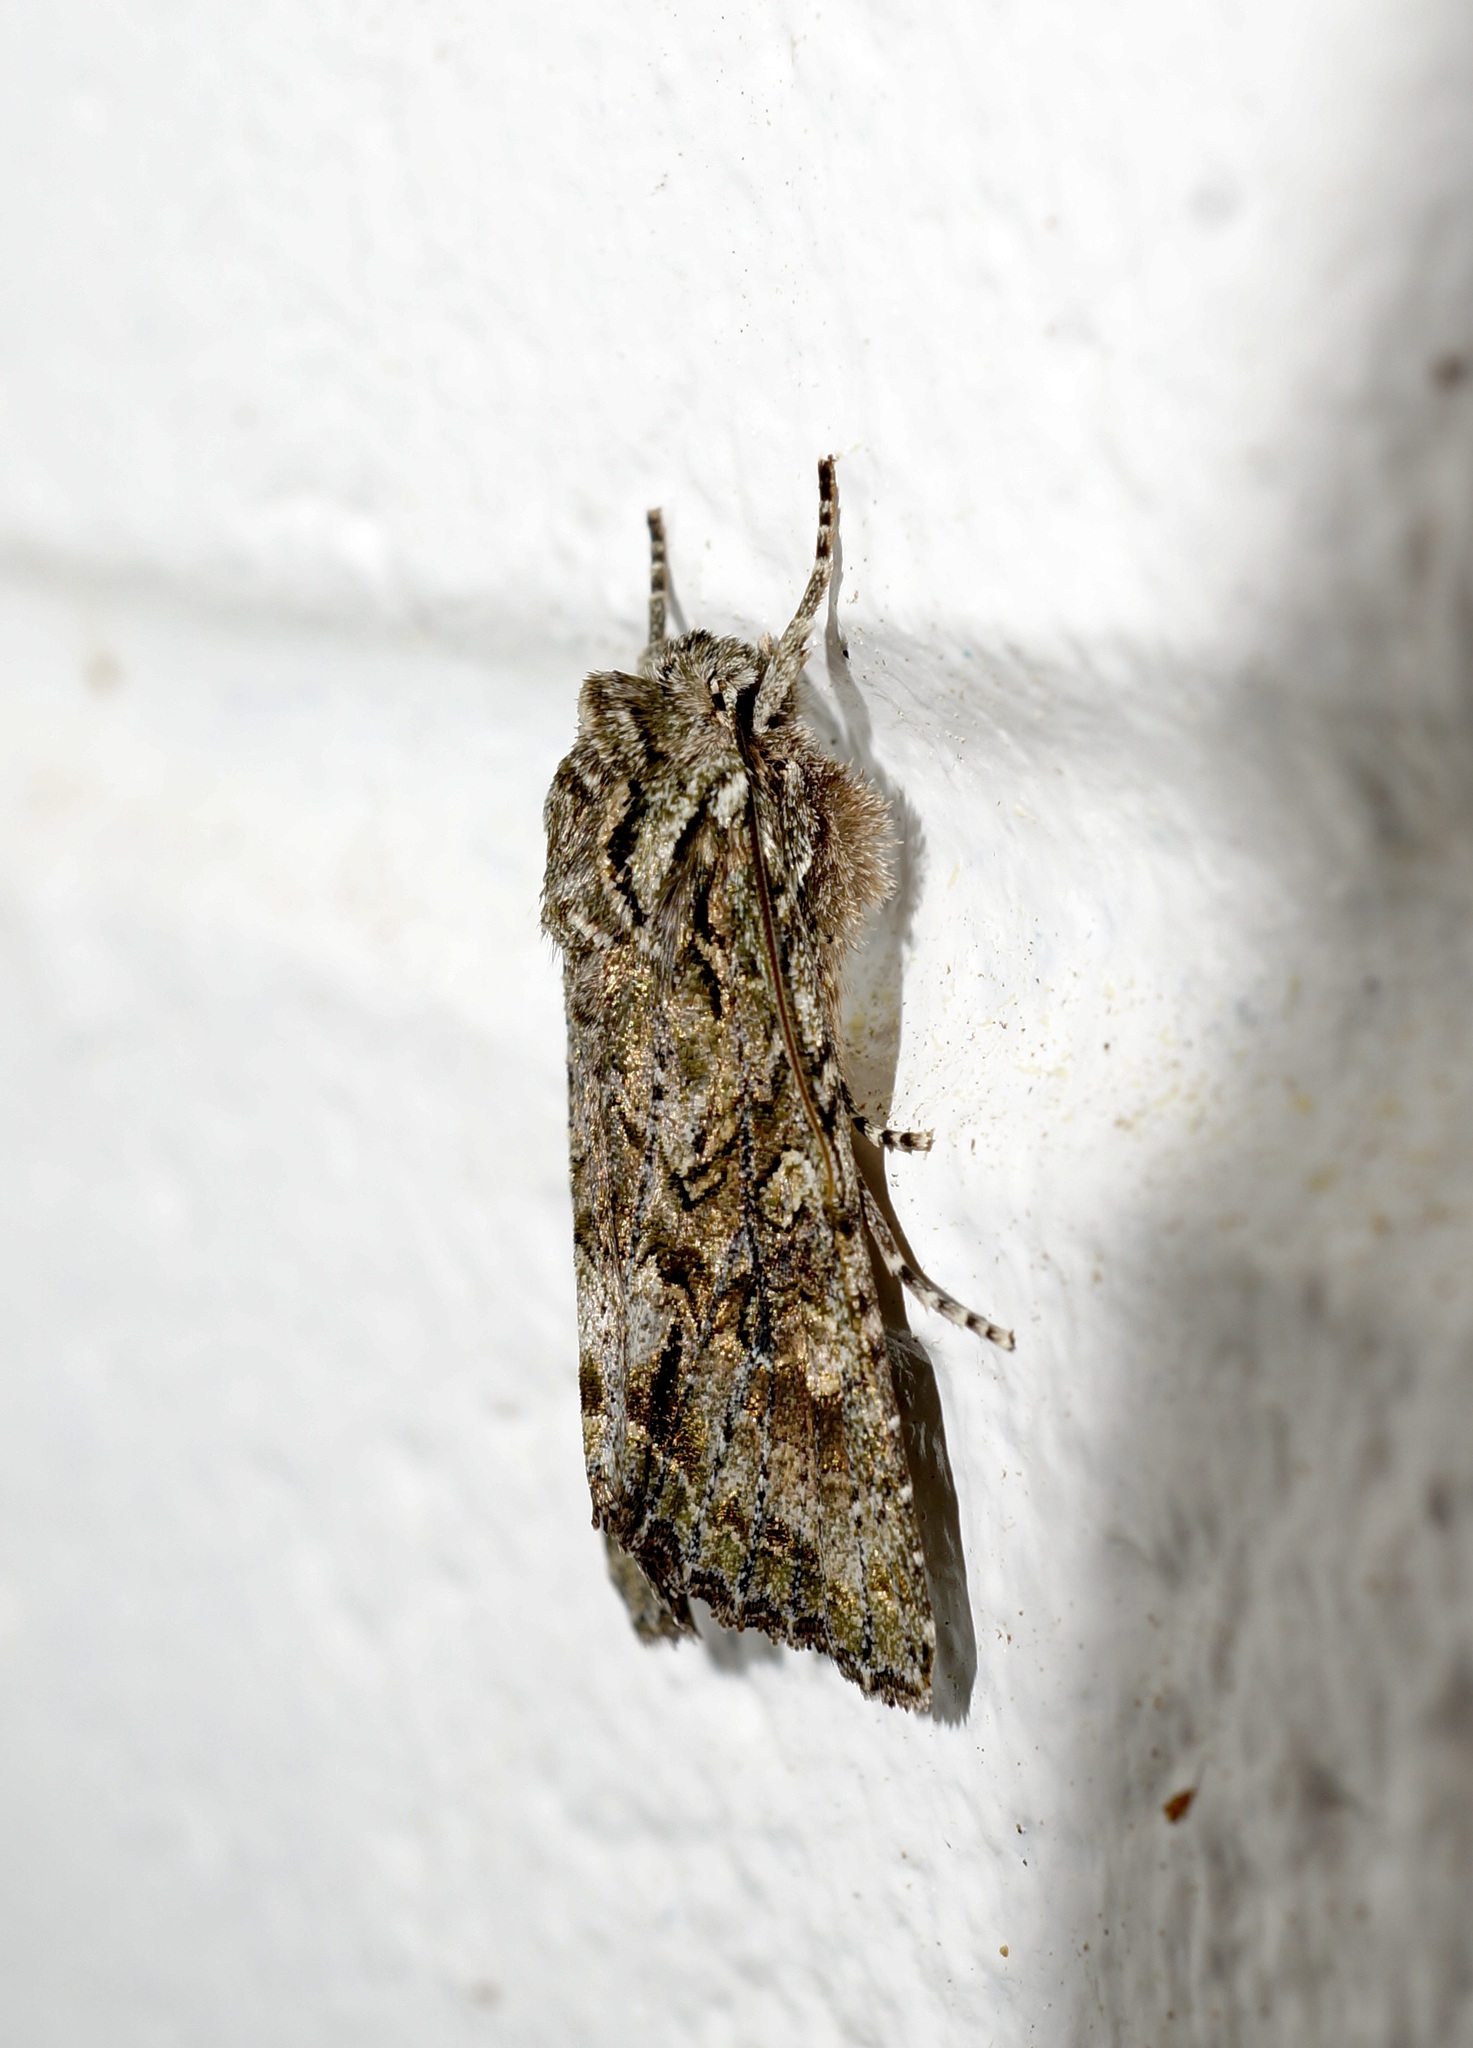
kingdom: Animalia
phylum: Arthropoda
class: Insecta
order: Lepidoptera
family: Noctuidae
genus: Ichneutica
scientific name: Ichneutica mutans
